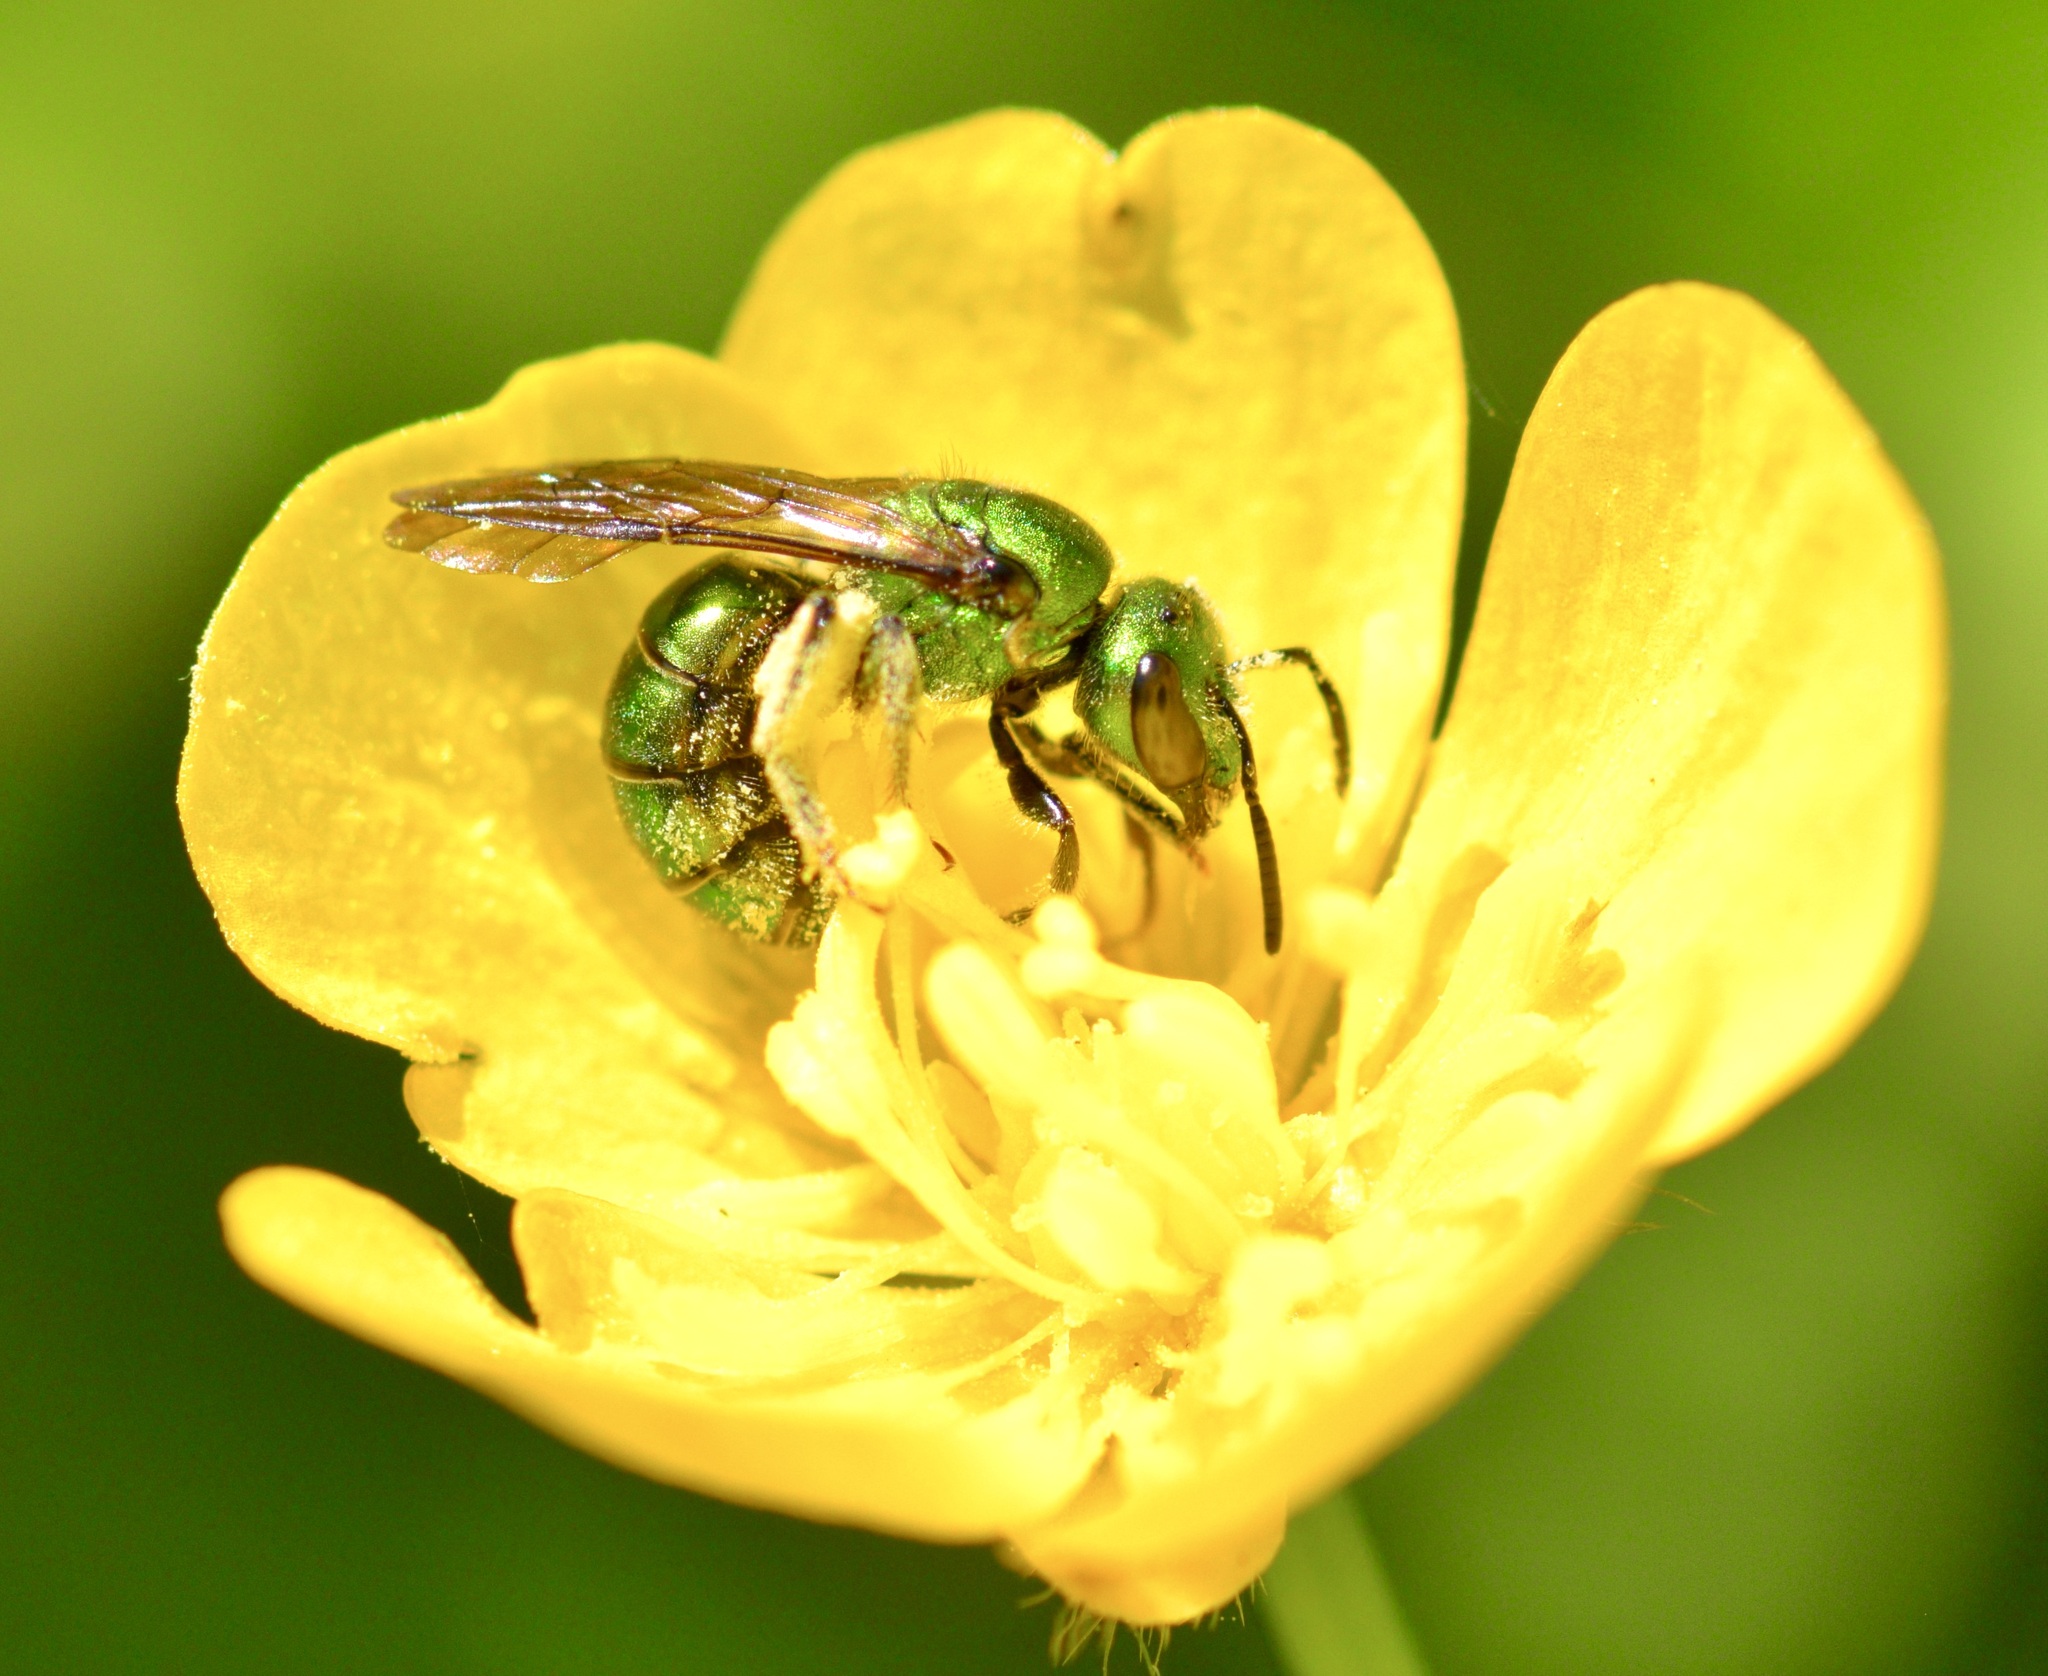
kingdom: Animalia
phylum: Arthropoda
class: Insecta
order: Hymenoptera
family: Halictidae
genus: Augochlora
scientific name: Augochlora pura
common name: Pure green sweat bee
